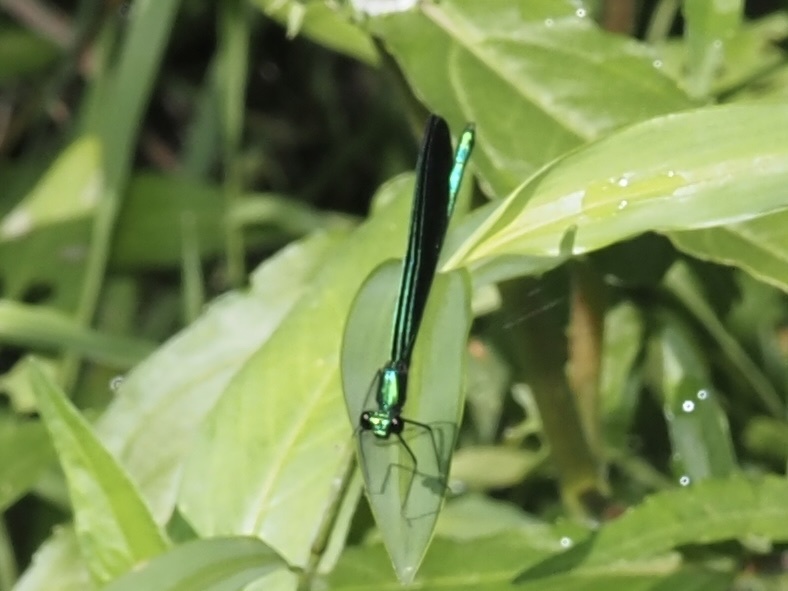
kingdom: Animalia
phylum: Arthropoda
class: Insecta
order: Odonata
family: Calopterygidae
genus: Calopteryx
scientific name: Calopteryx maculata
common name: Ebony jewelwing
